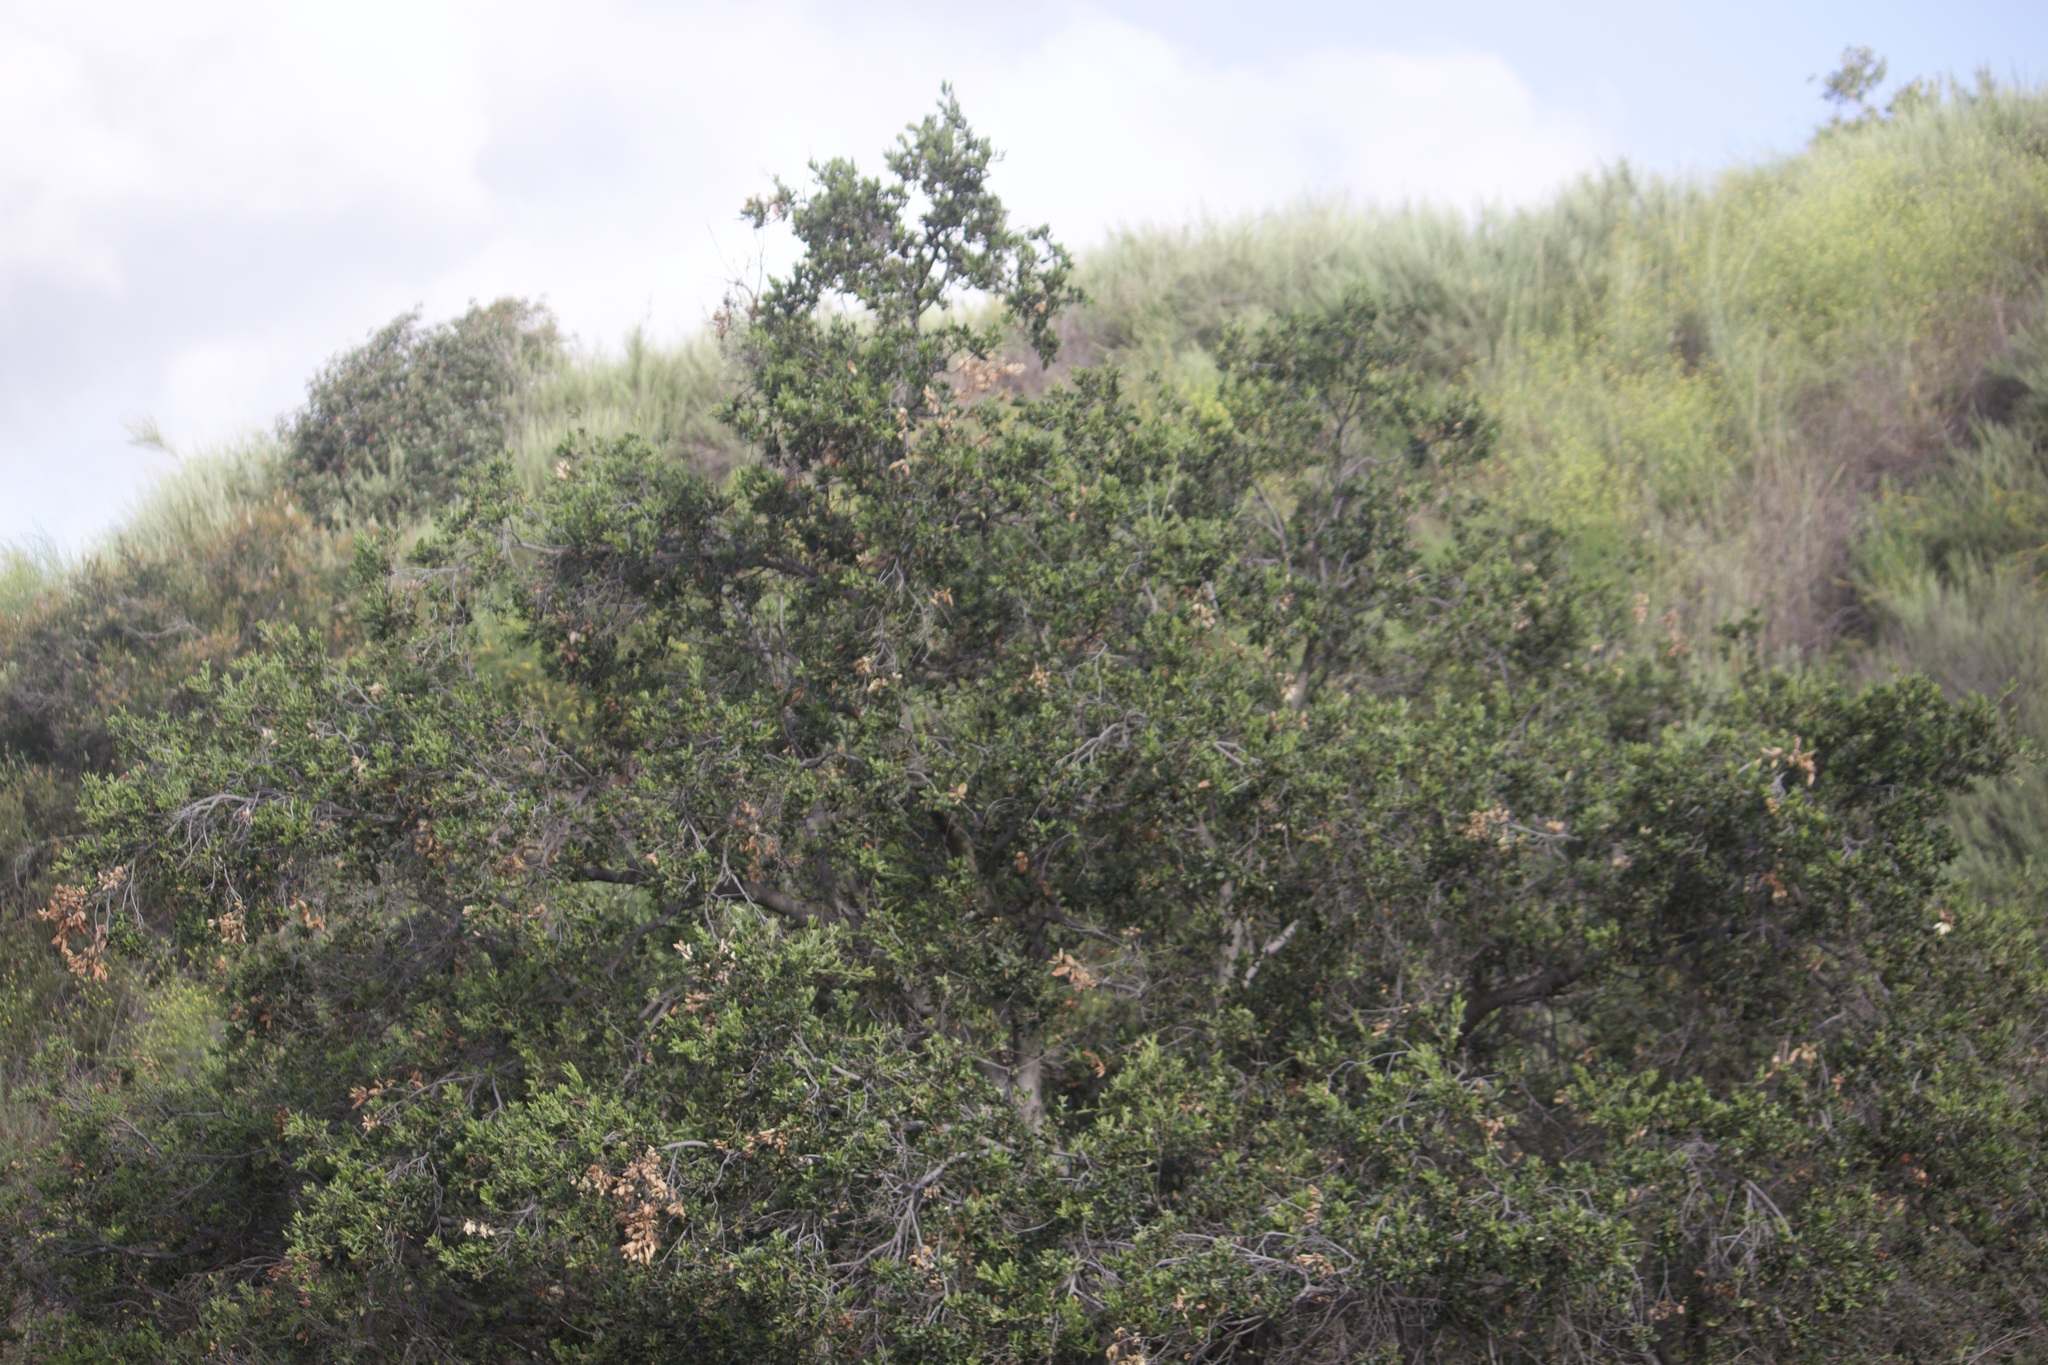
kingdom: Plantae
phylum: Tracheophyta
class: Magnoliopsida
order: Fagales
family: Fagaceae
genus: Quercus
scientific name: Quercus agrifolia
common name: California live oak
